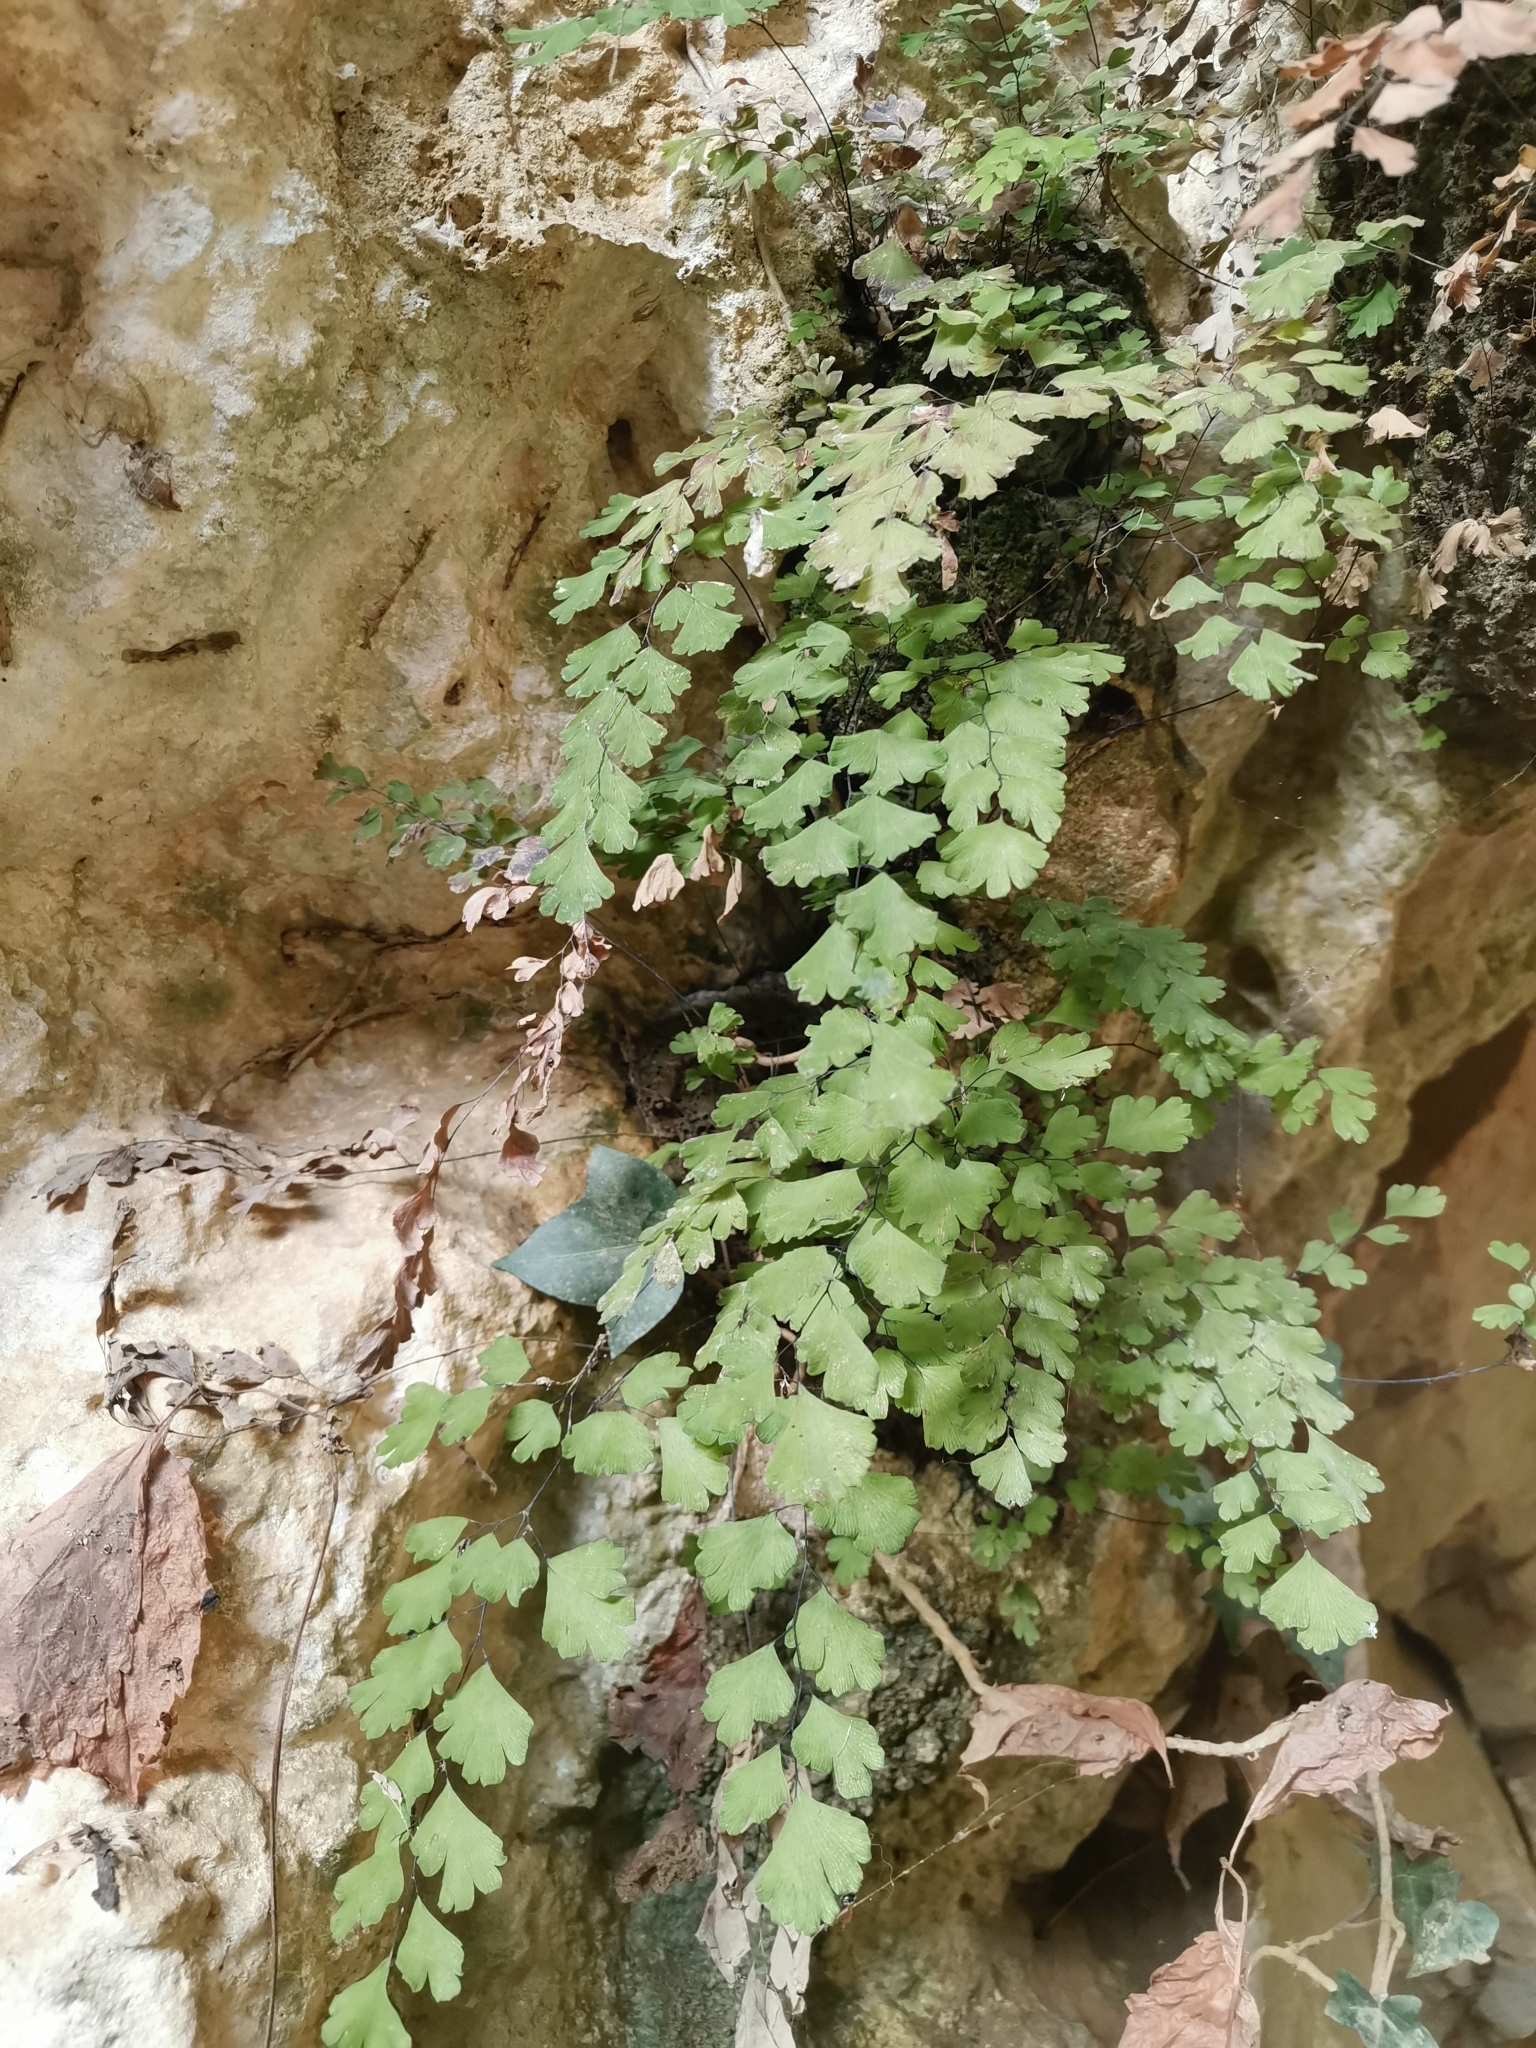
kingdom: Plantae
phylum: Tracheophyta
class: Polypodiopsida
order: Polypodiales
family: Pteridaceae
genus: Adiantum
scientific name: Adiantum capillus-veneris
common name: Maidenhair fern
